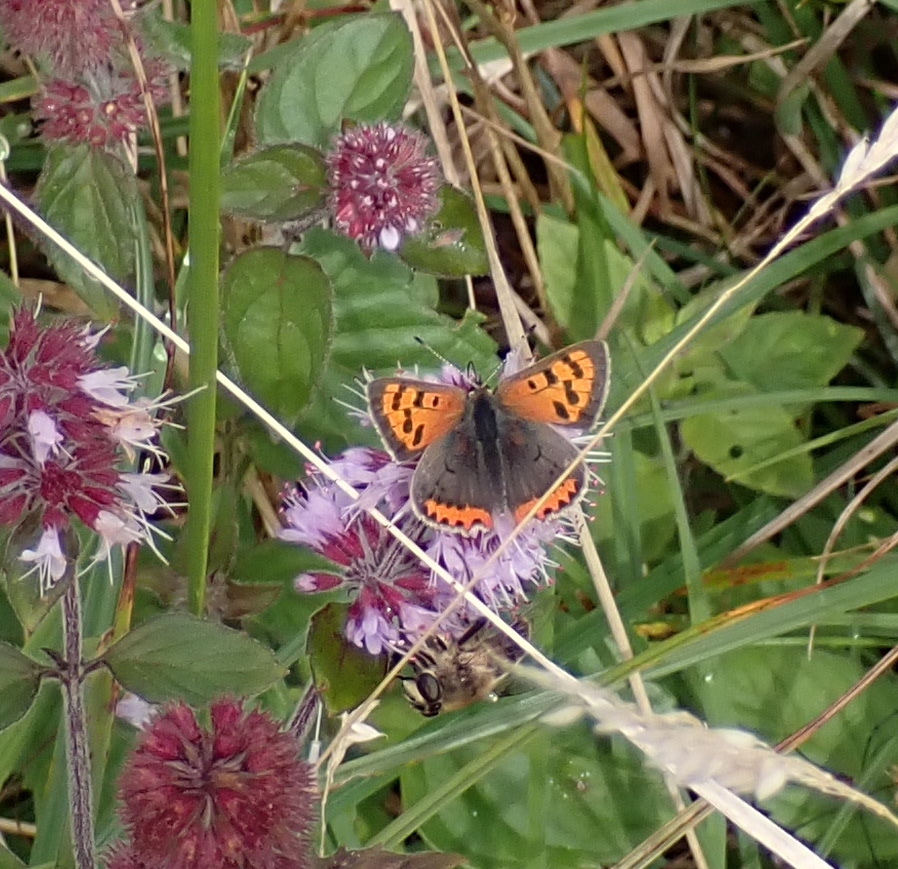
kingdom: Animalia
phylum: Arthropoda
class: Insecta
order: Lepidoptera
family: Lycaenidae
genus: Lycaena
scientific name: Lycaena phlaeas
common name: Small copper
